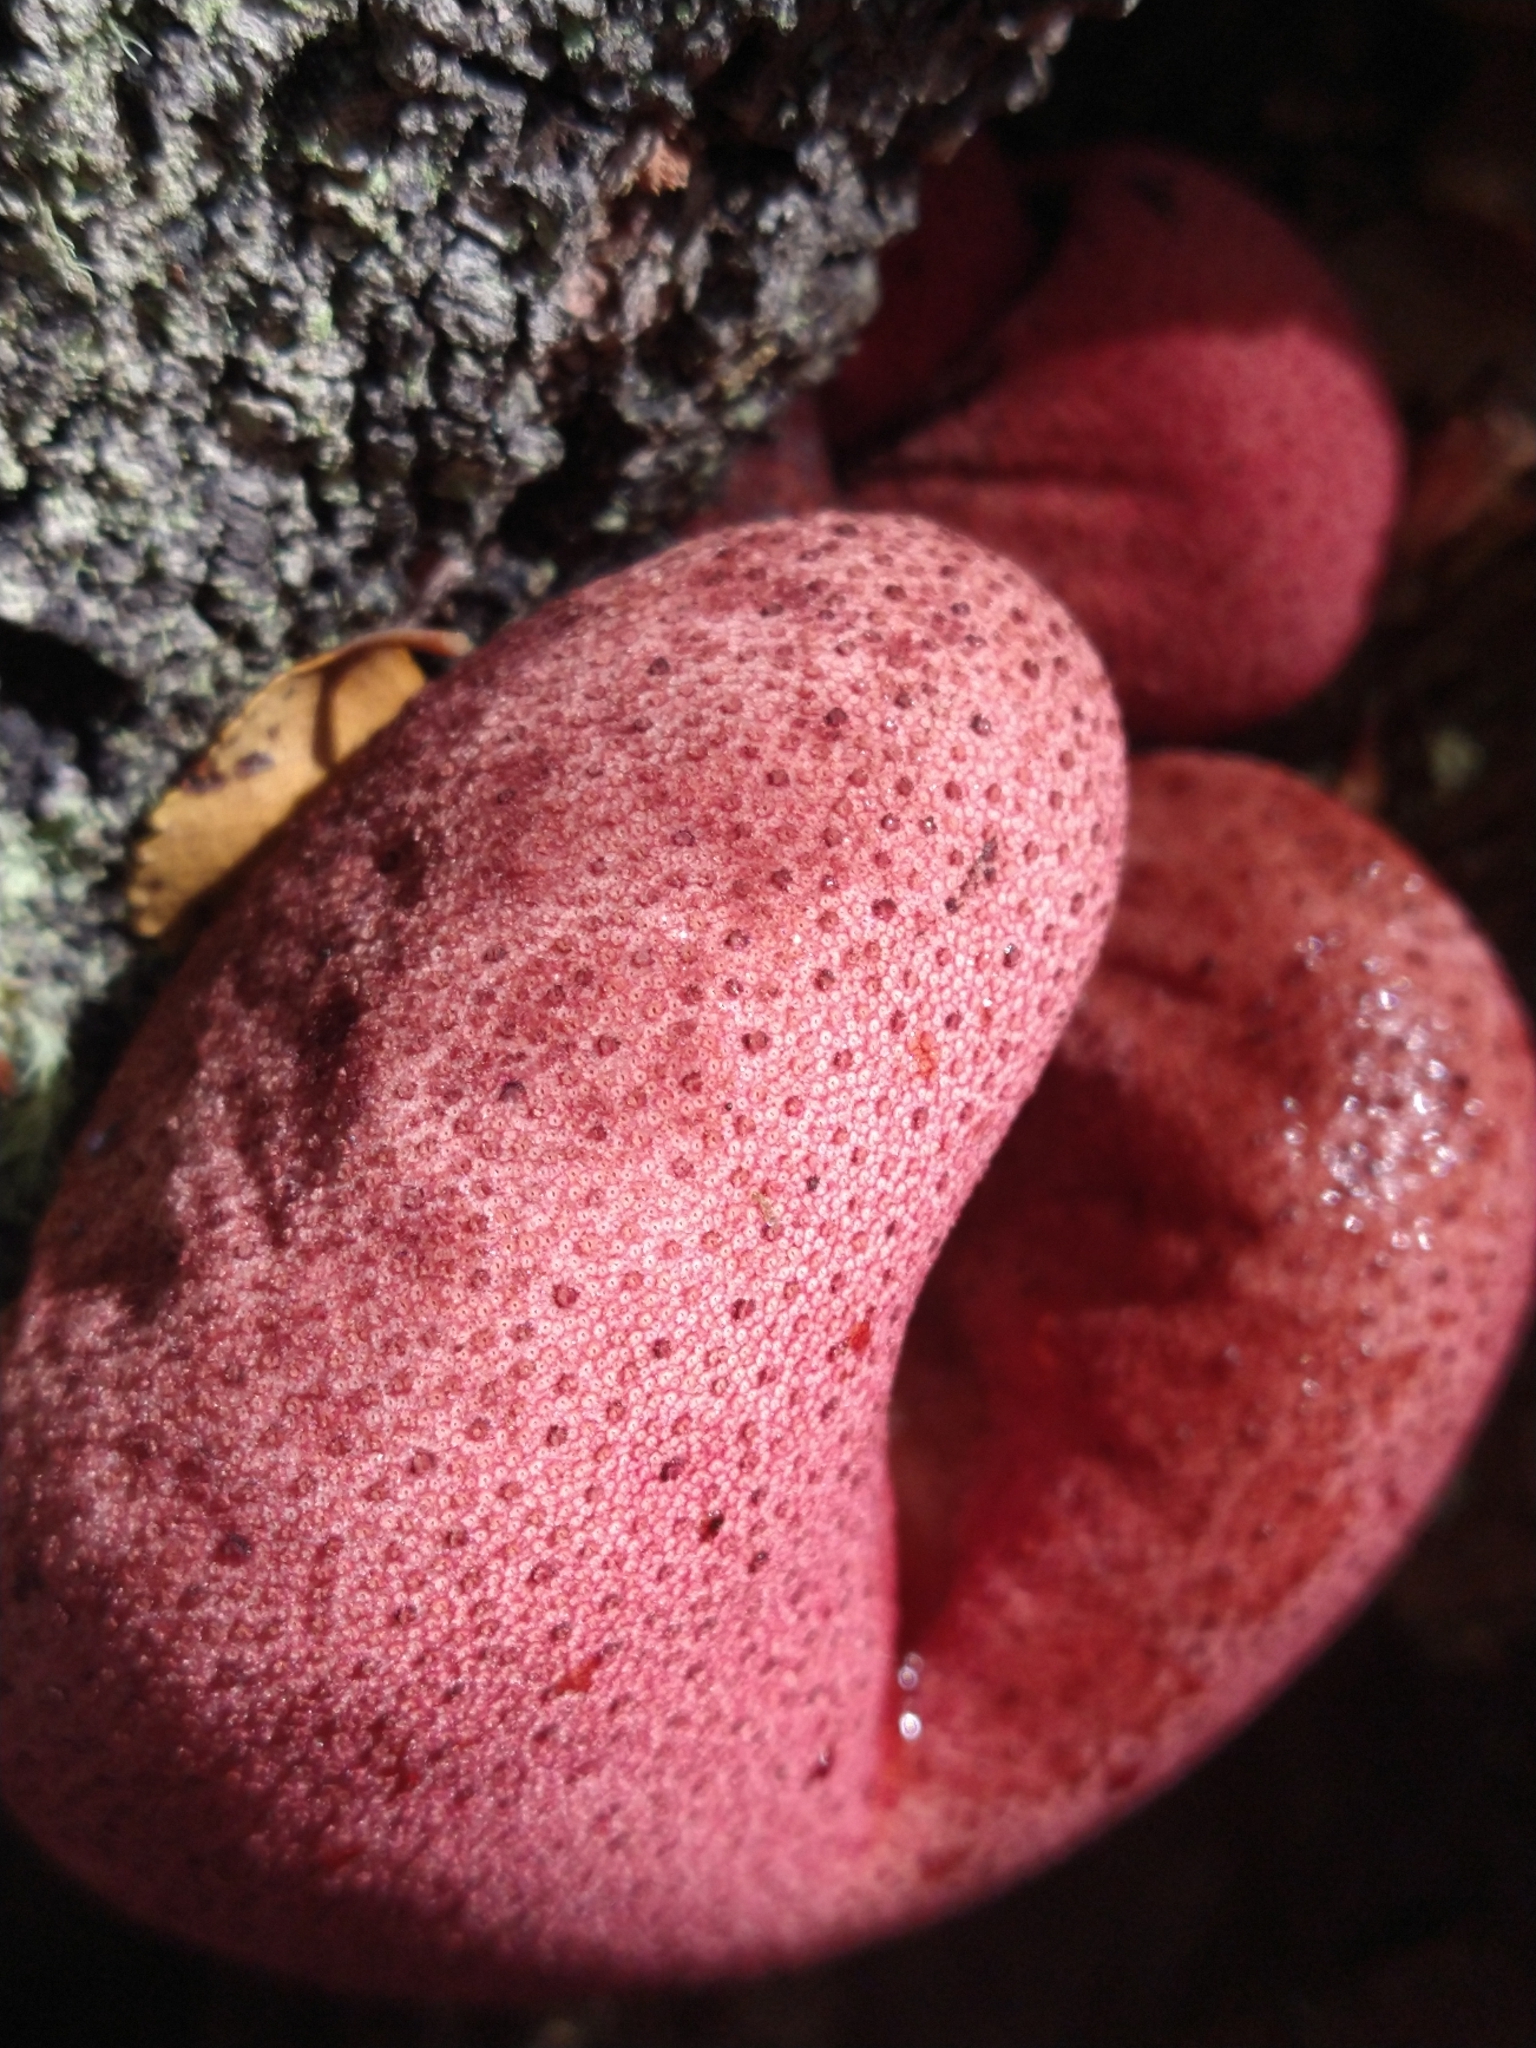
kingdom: Fungi
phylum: Basidiomycota
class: Agaricomycetes
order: Agaricales
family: Fistulinaceae
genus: Fistulina
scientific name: Fistulina antarctica
